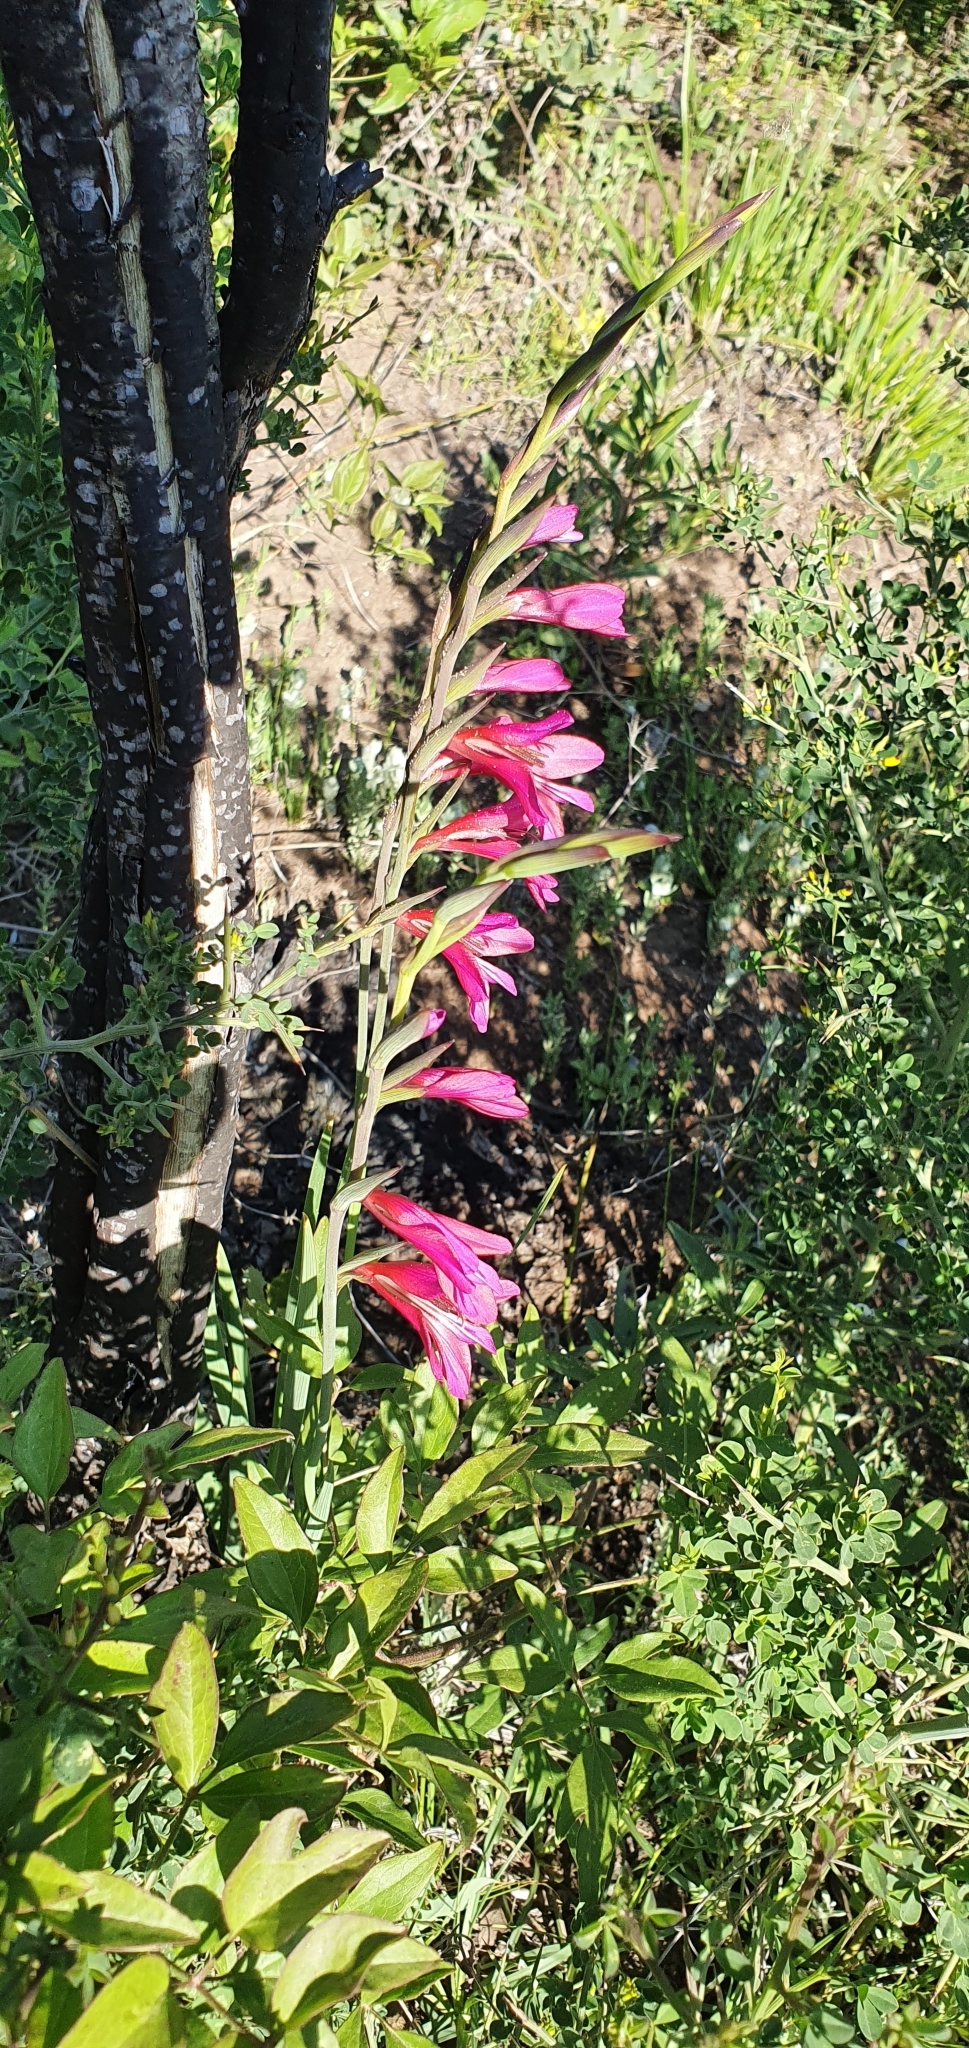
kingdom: Plantae
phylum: Tracheophyta
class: Liliopsida
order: Asparagales
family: Iridaceae
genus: Gladiolus
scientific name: Gladiolus dubius
